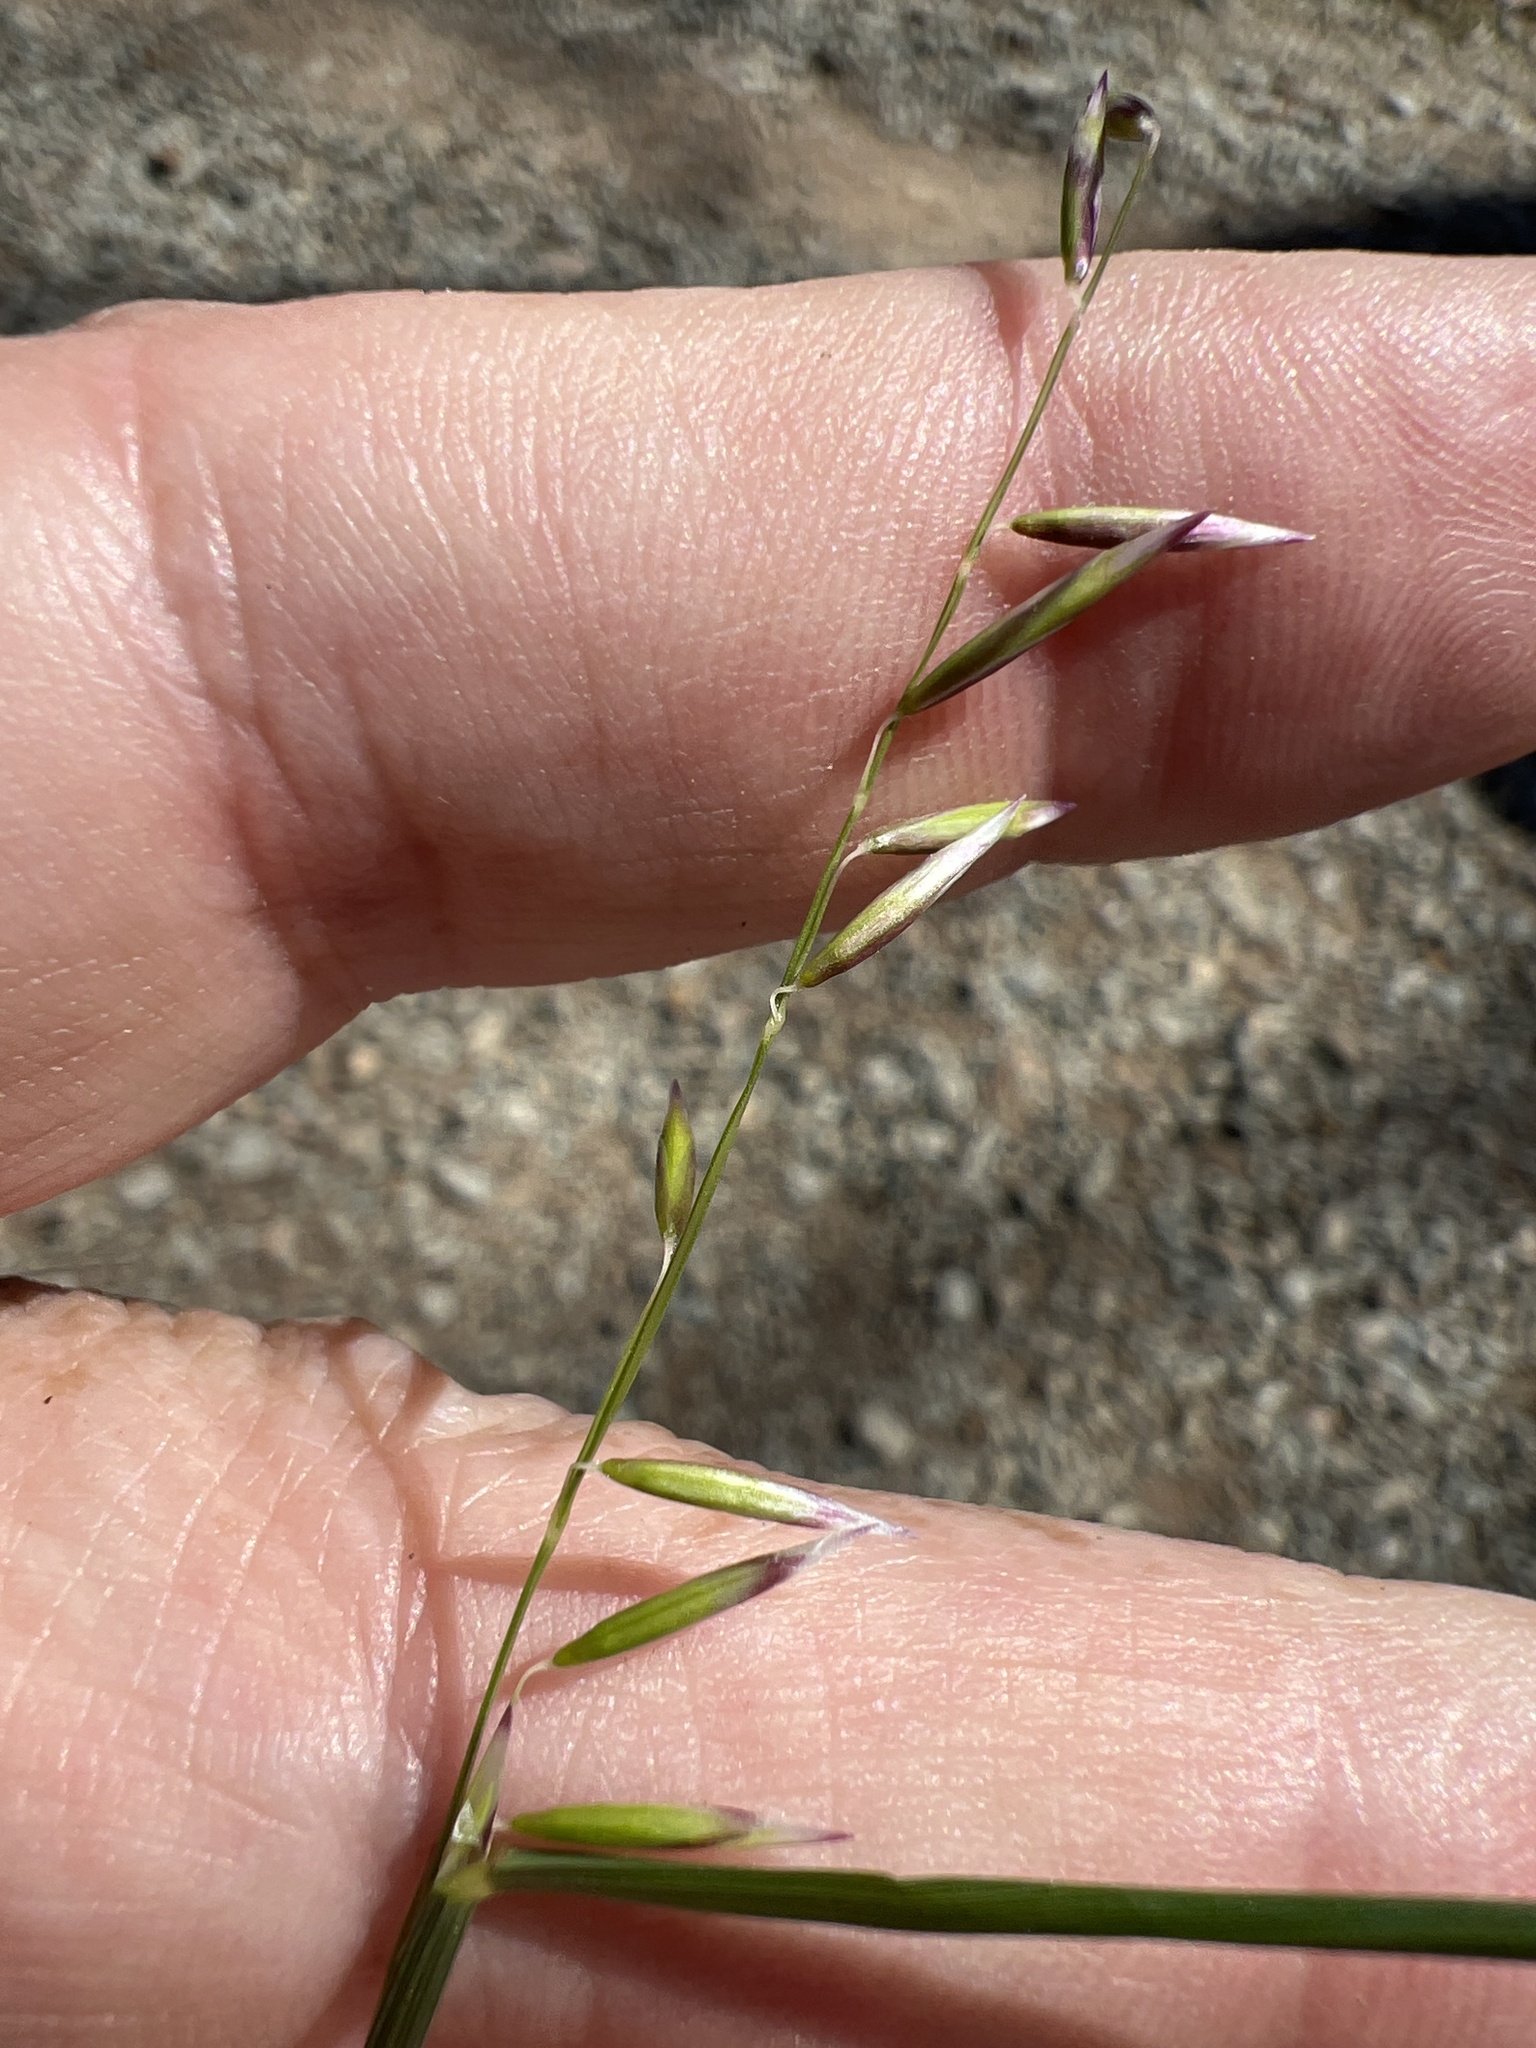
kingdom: Plantae
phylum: Tracheophyta
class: Liliopsida
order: Poales
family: Poaceae
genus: Melica
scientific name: Melica mutica
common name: Two-flower melic
